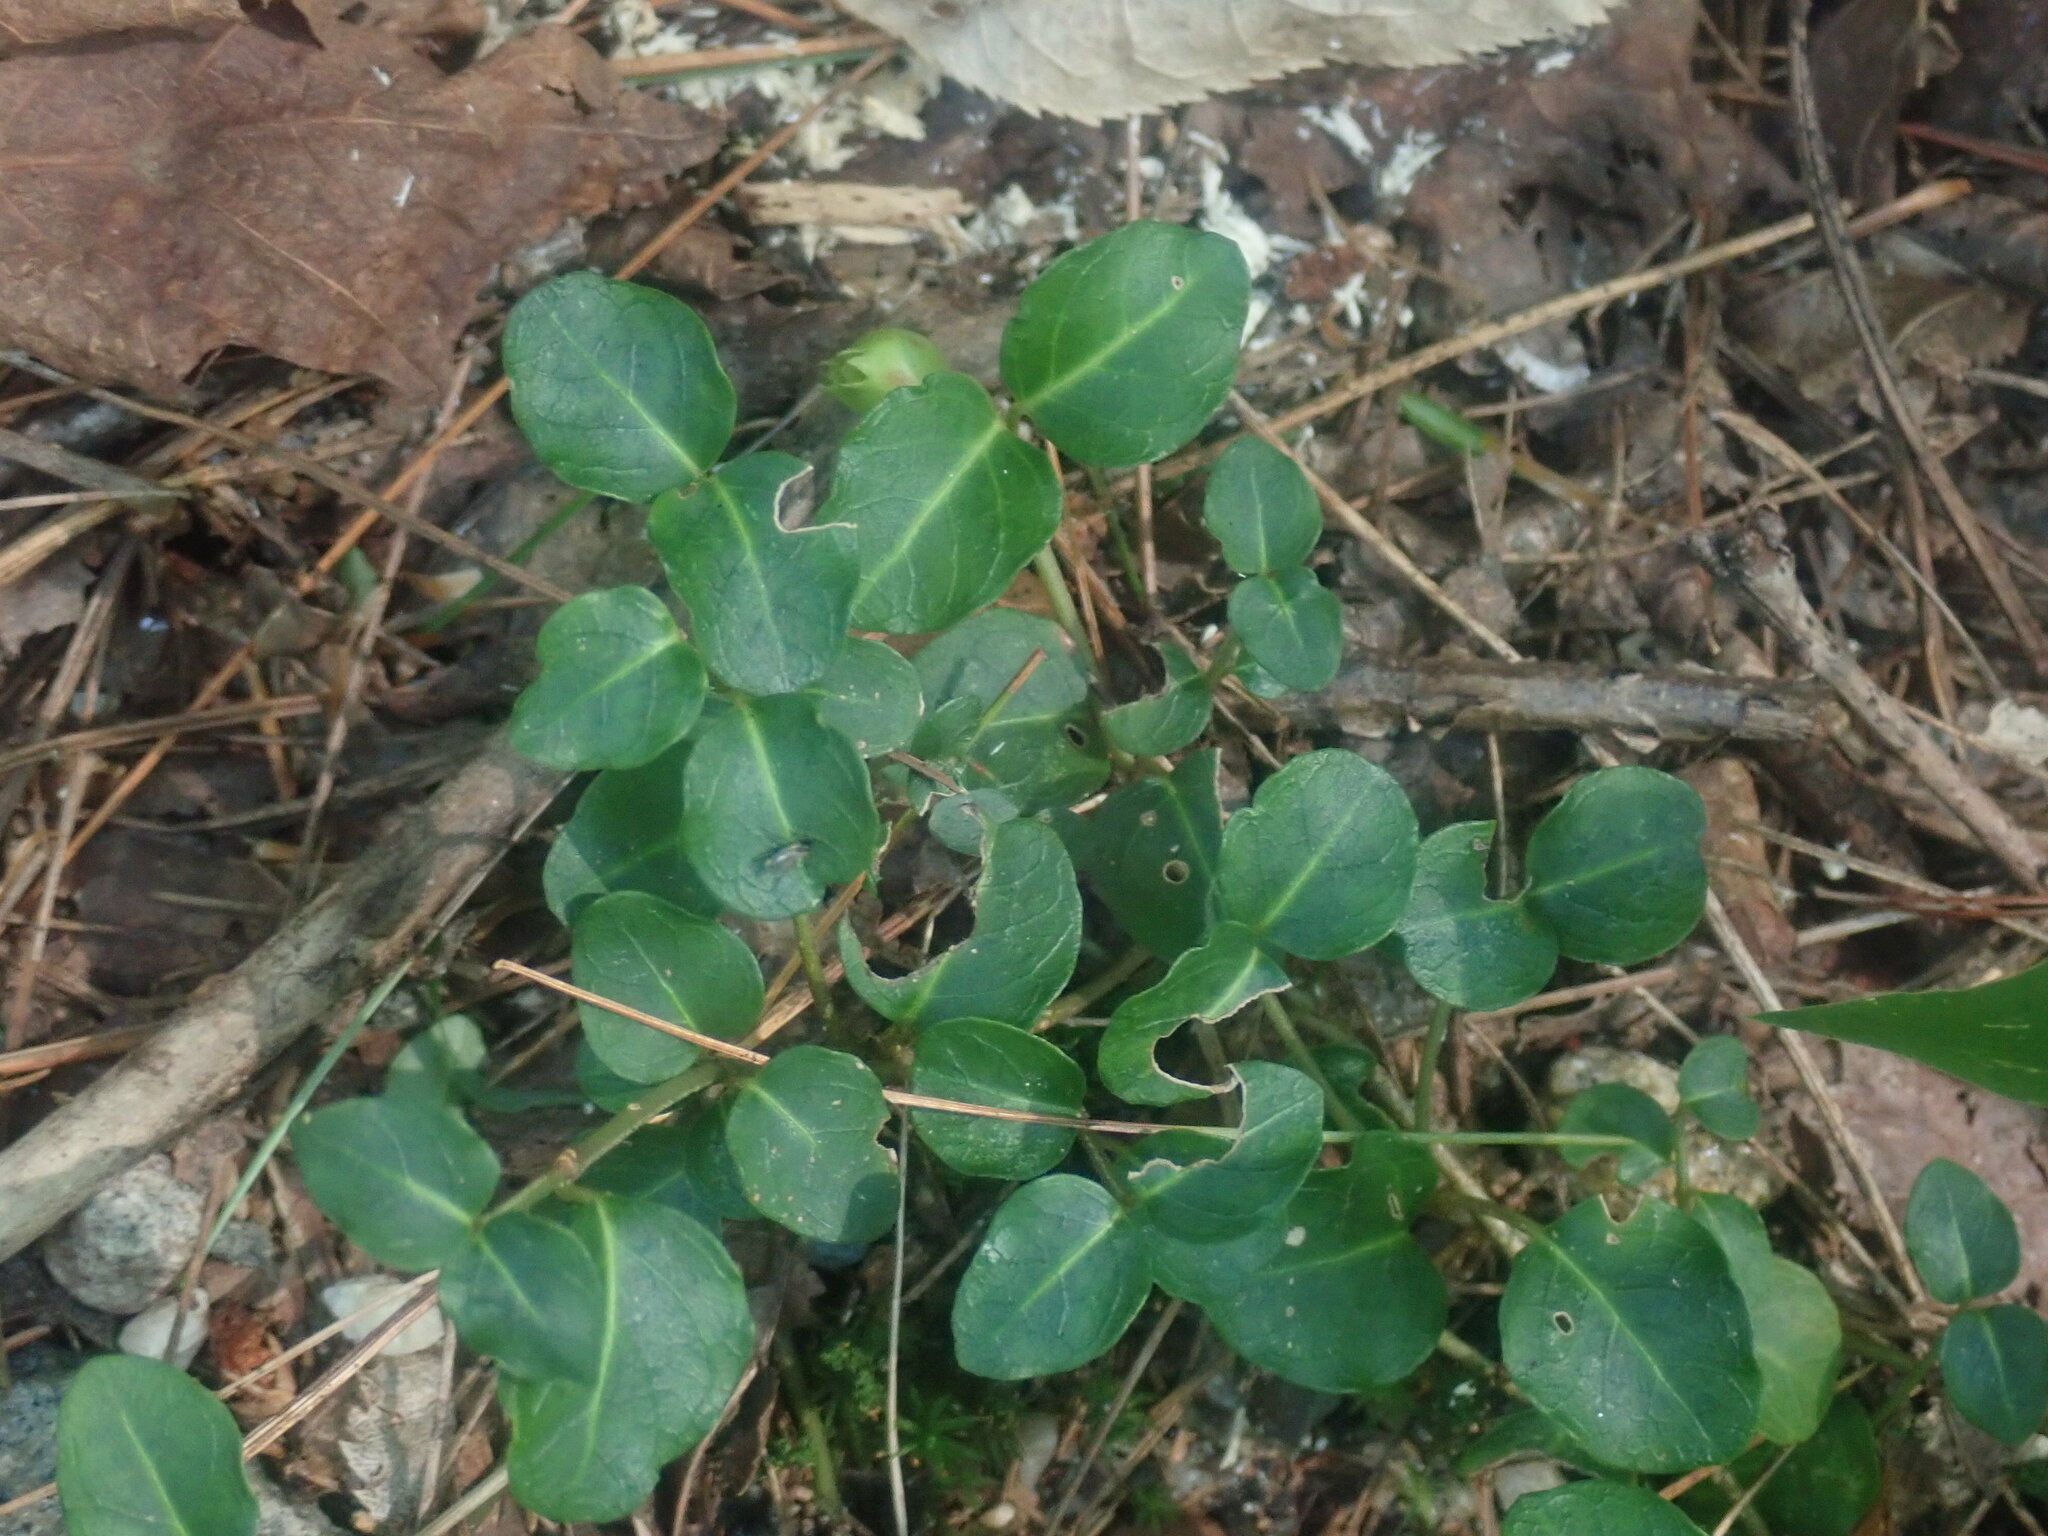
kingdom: Plantae
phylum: Tracheophyta
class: Magnoliopsida
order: Gentianales
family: Rubiaceae
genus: Mitchella
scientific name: Mitchella repens
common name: Partridge-berry
